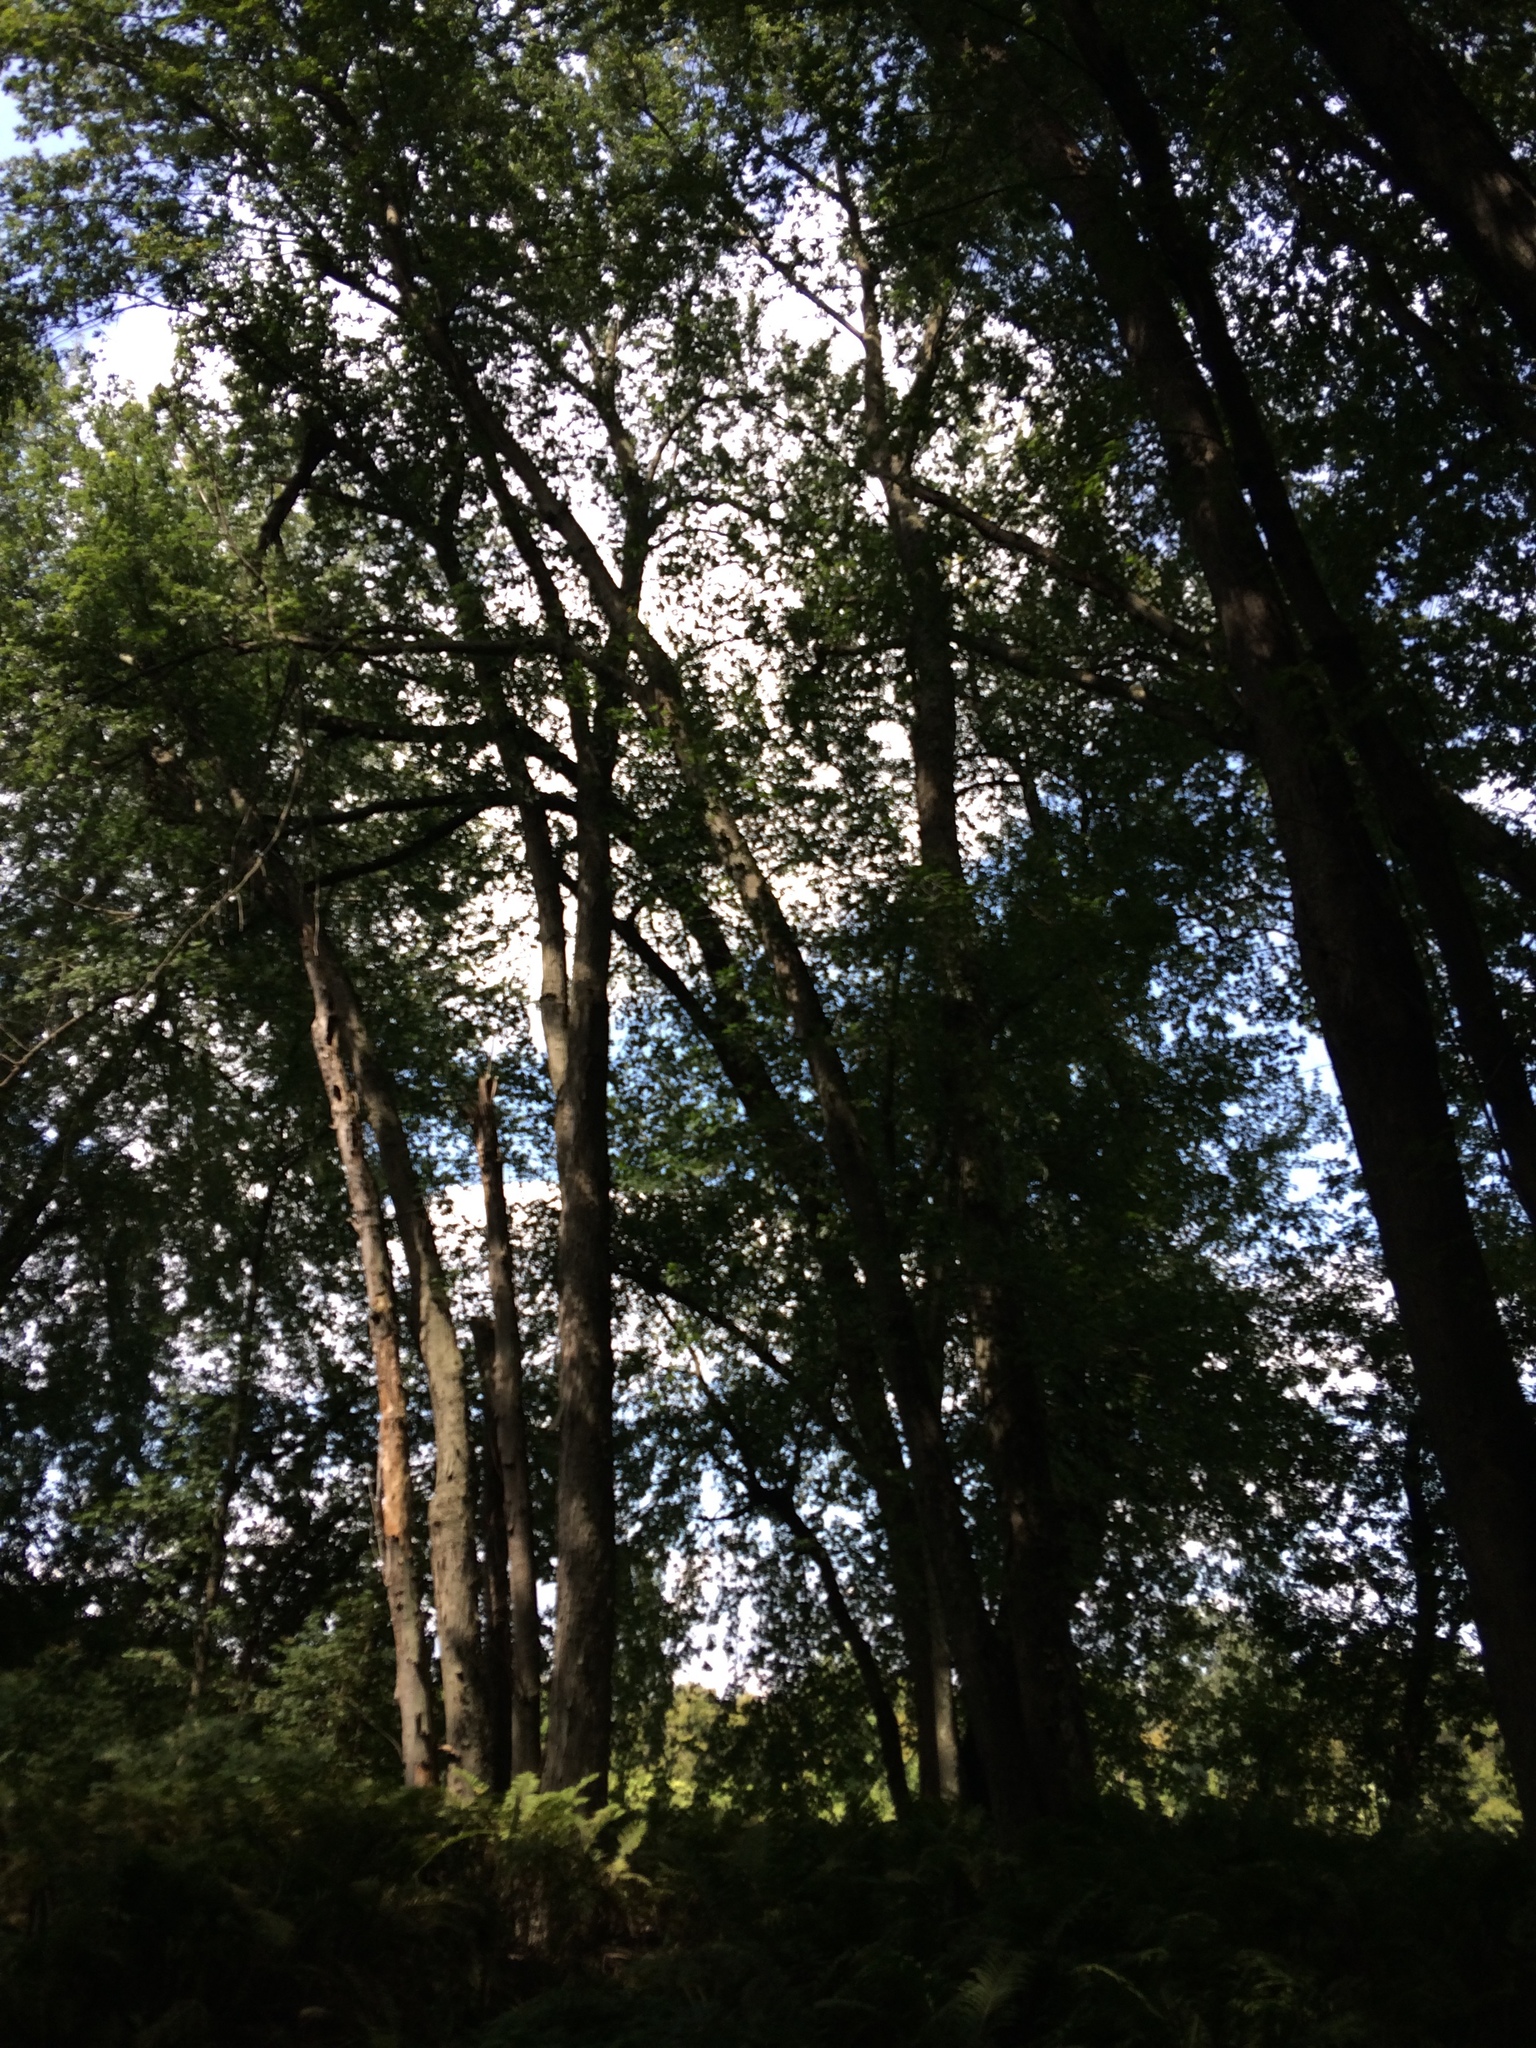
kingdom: Plantae
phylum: Tracheophyta
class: Magnoliopsida
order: Sapindales
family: Sapindaceae
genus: Acer
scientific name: Acer saccharinum
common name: Silver maple
